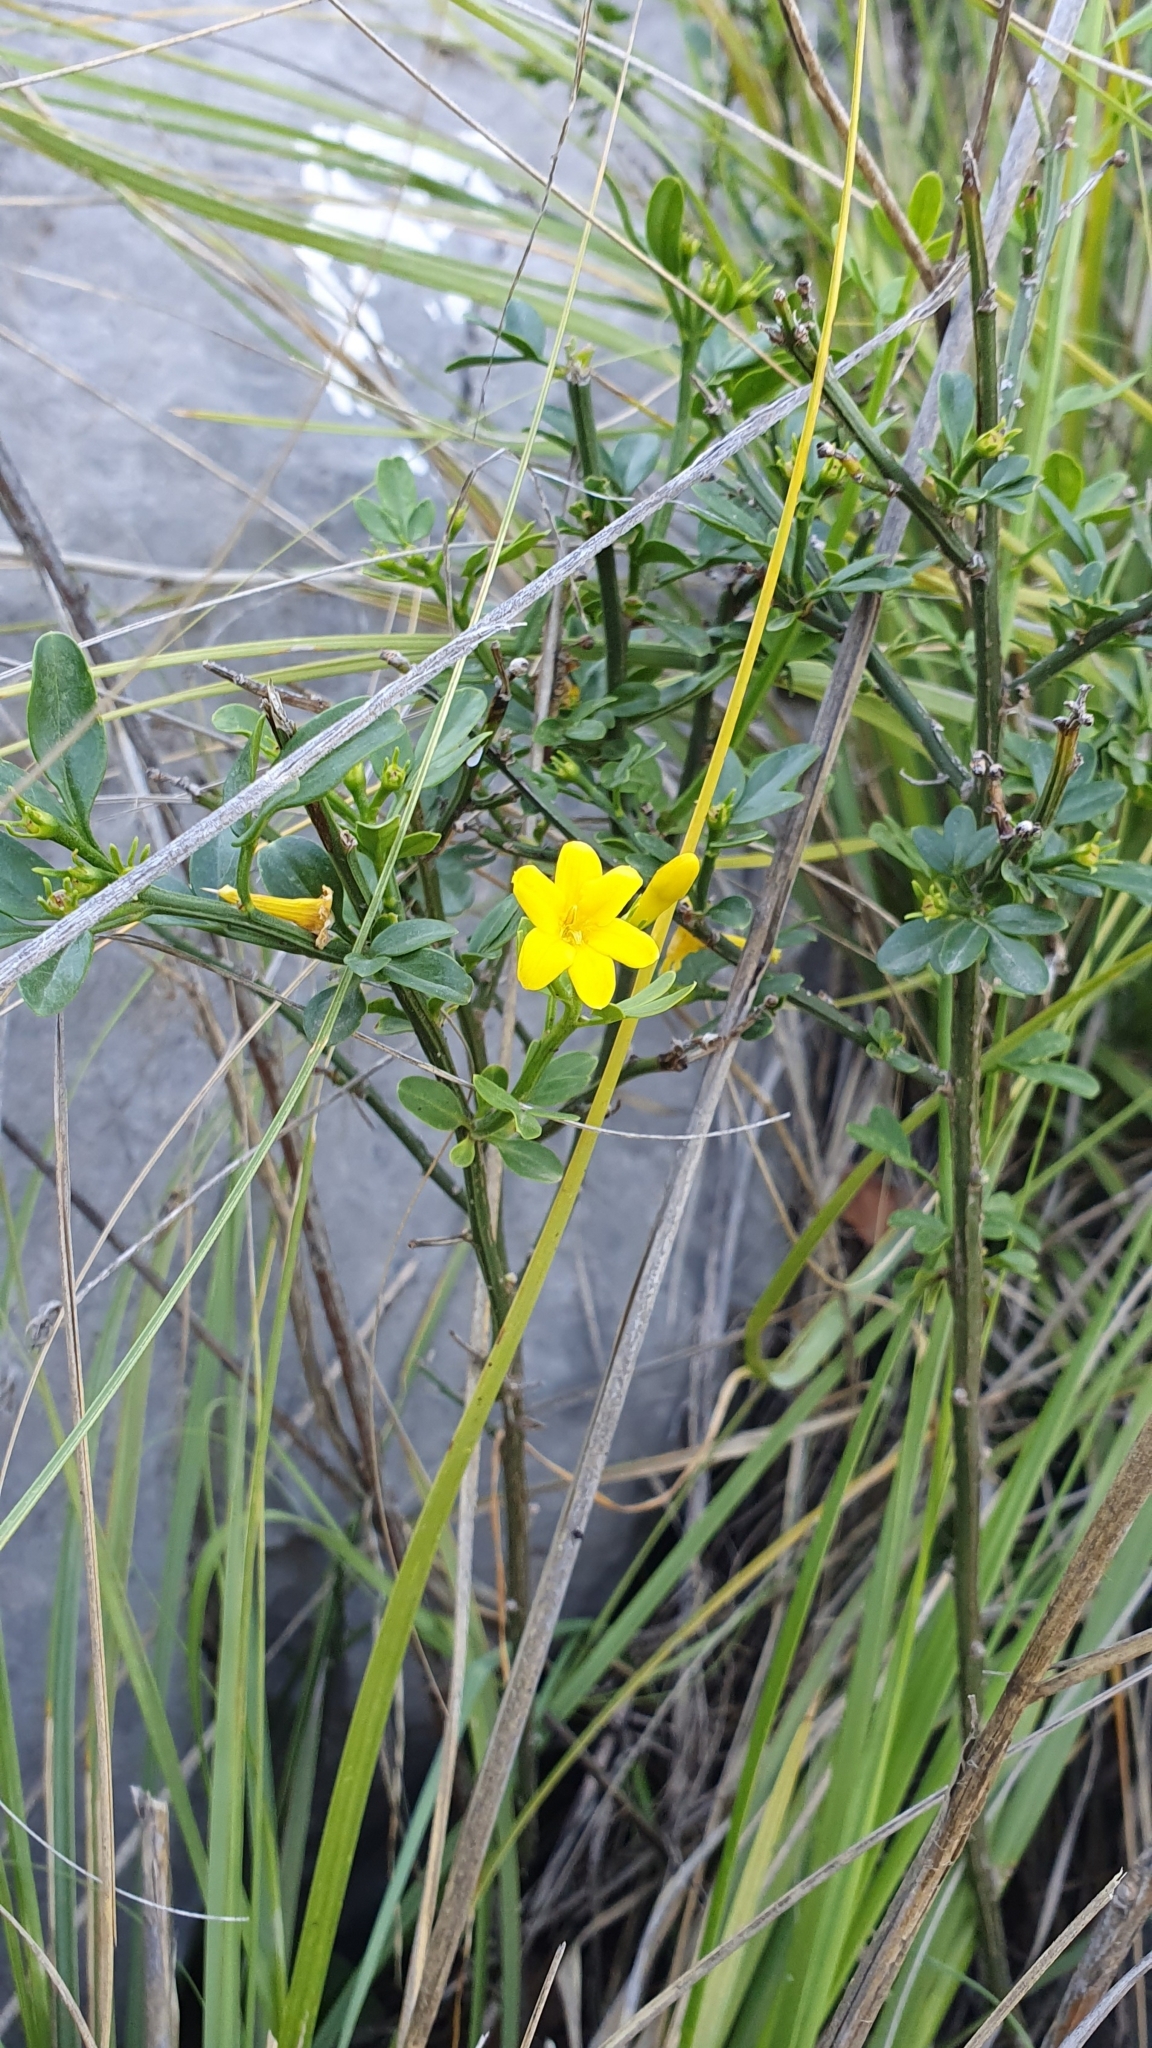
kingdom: Plantae
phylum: Tracheophyta
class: Magnoliopsida
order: Lamiales
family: Oleaceae
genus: Chrysojasminum
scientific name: Chrysojasminum fruticans
